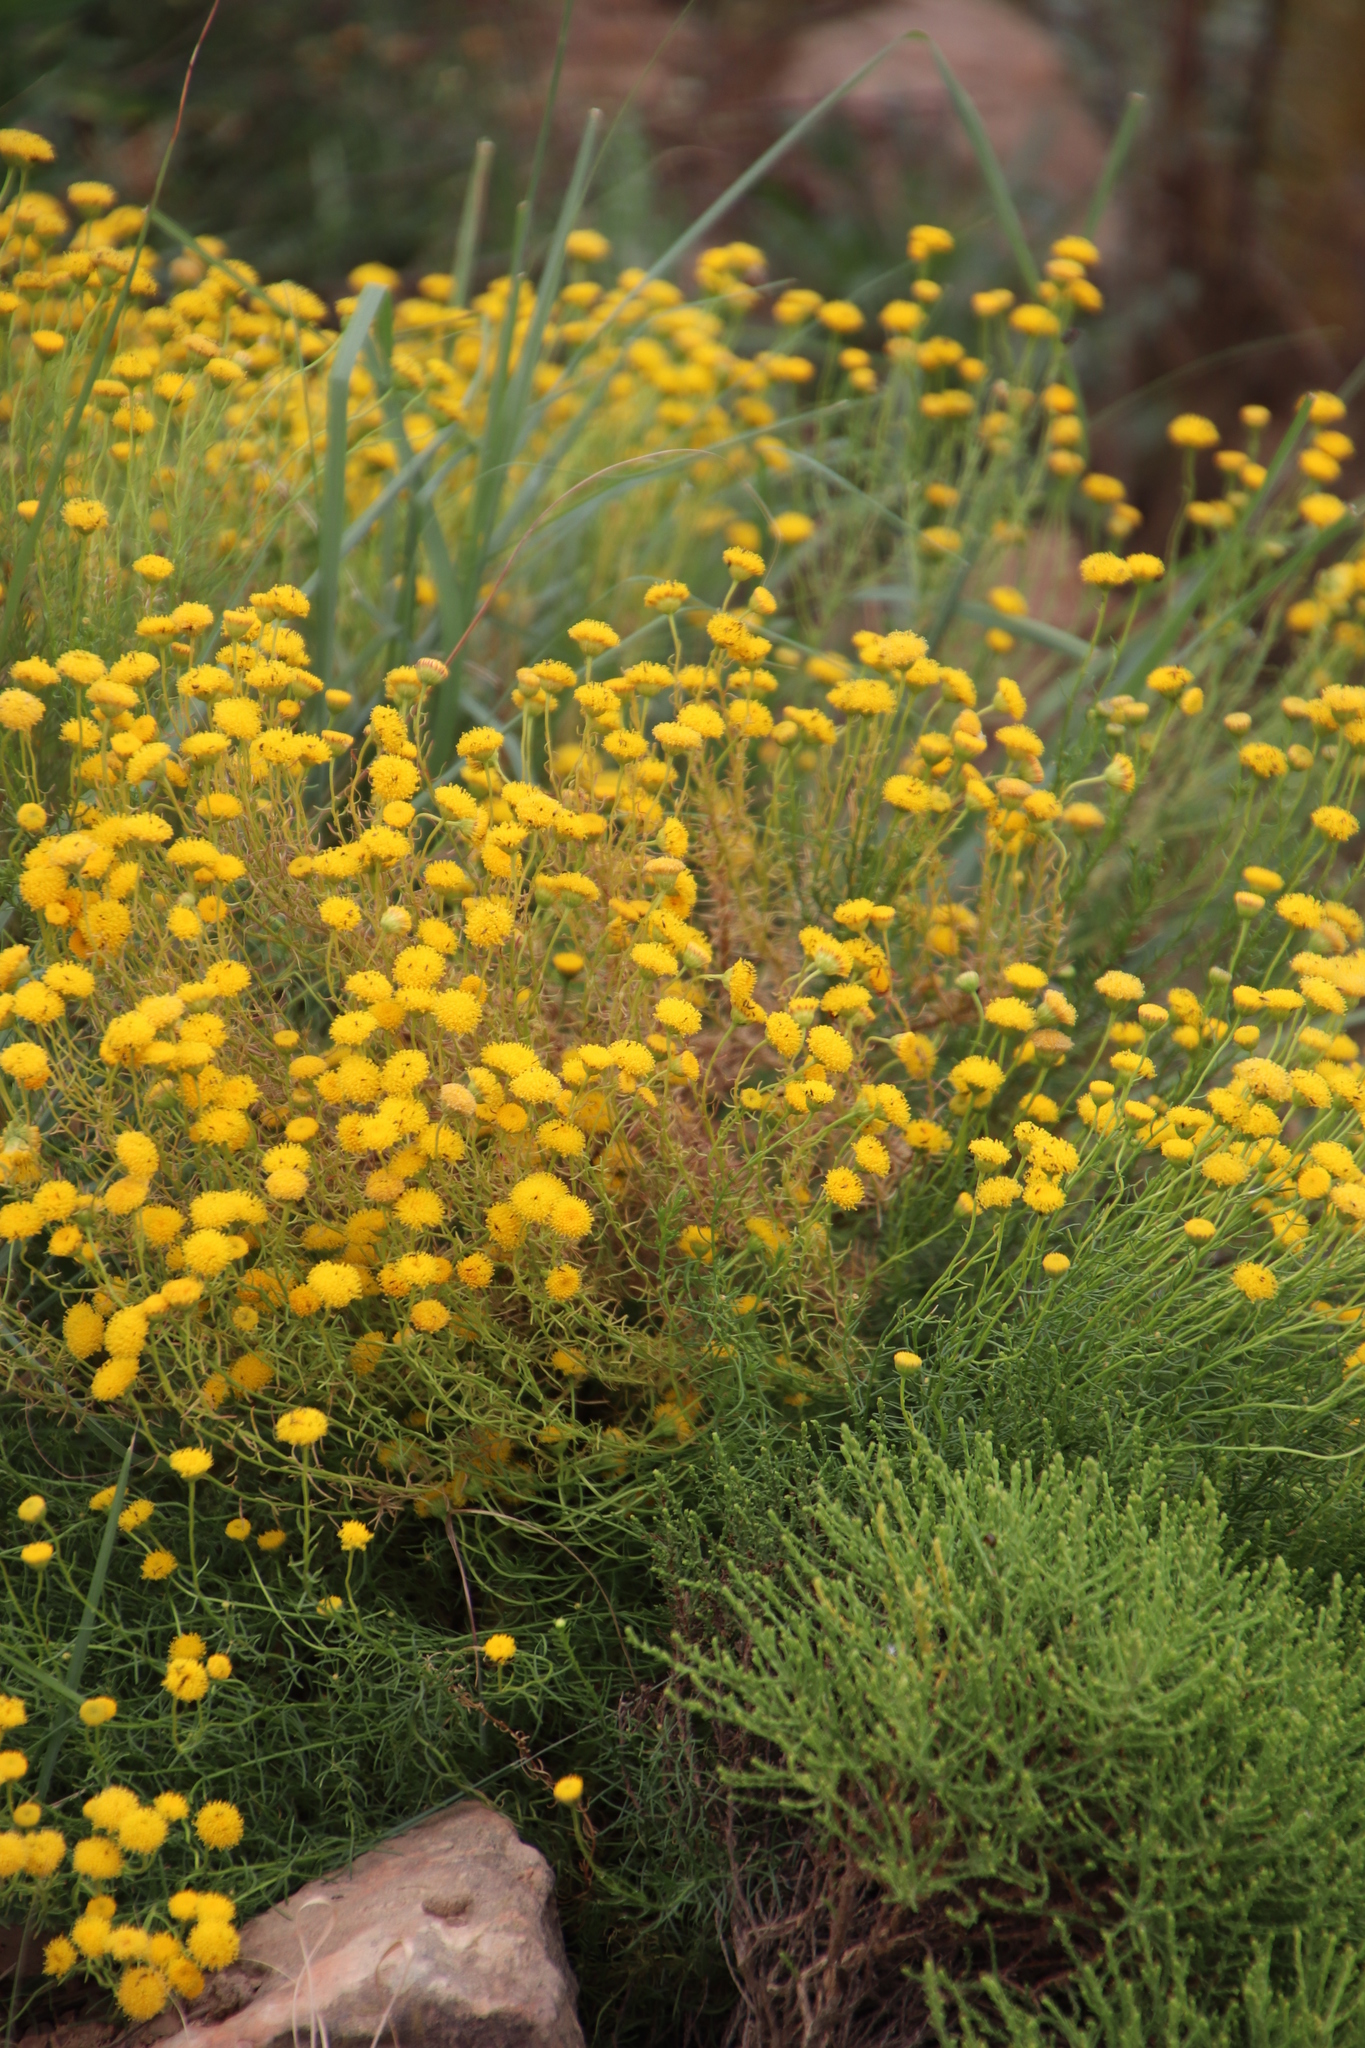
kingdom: Plantae
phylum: Tracheophyta
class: Magnoliopsida
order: Asterales
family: Asteraceae
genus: Chrysocoma
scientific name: Chrysocoma ciliata
